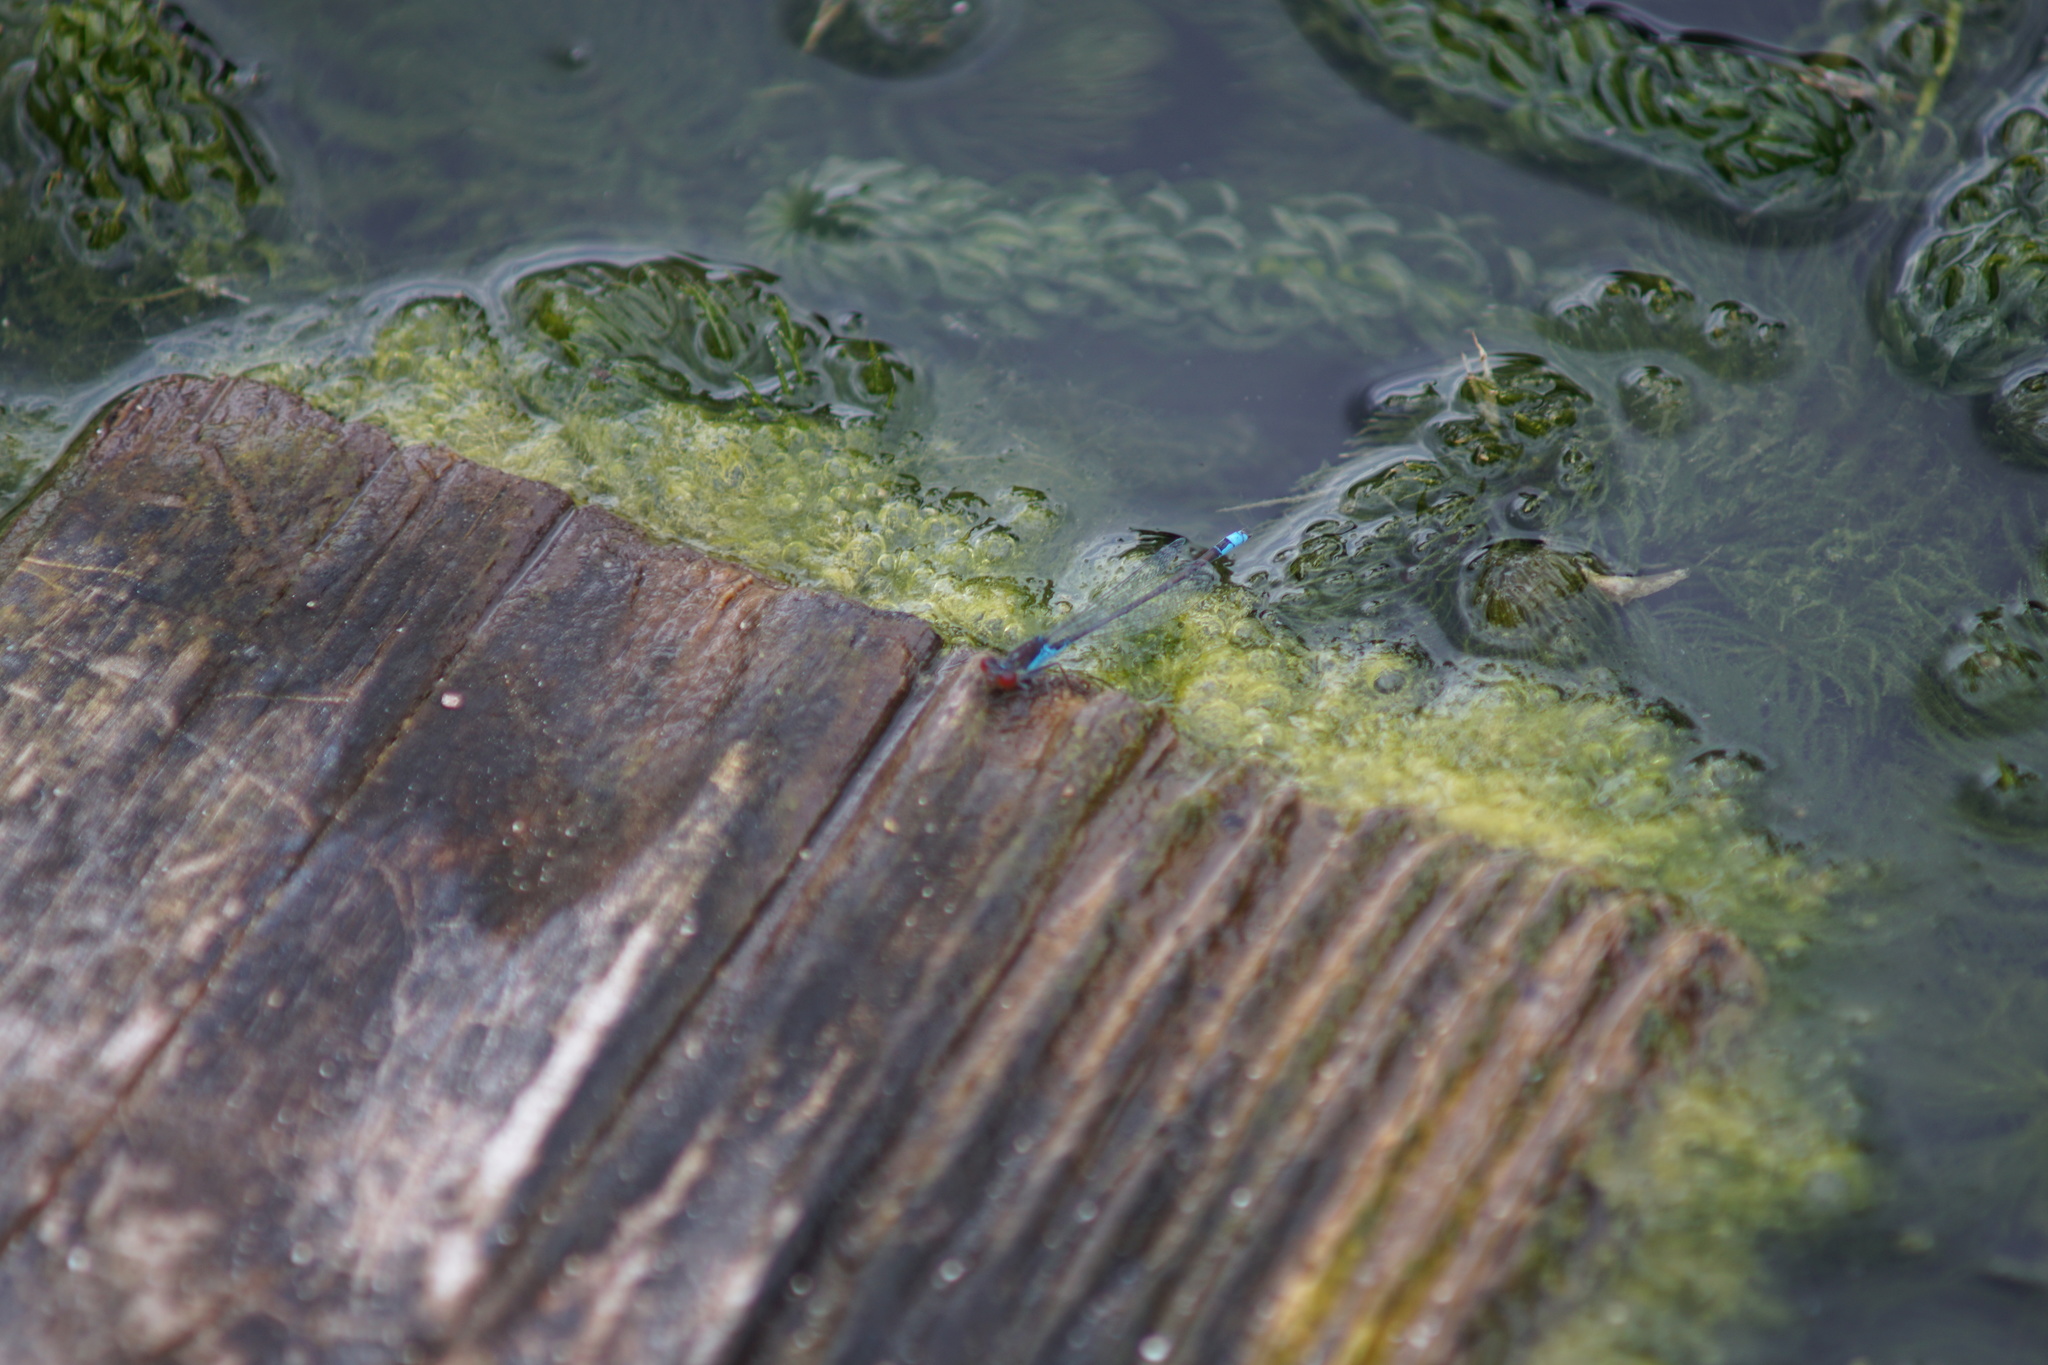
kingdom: Animalia
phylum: Arthropoda
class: Insecta
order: Odonata
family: Coenagrionidae
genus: Erythromma
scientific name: Erythromma viridulum
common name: Small red-eyed damselfly
